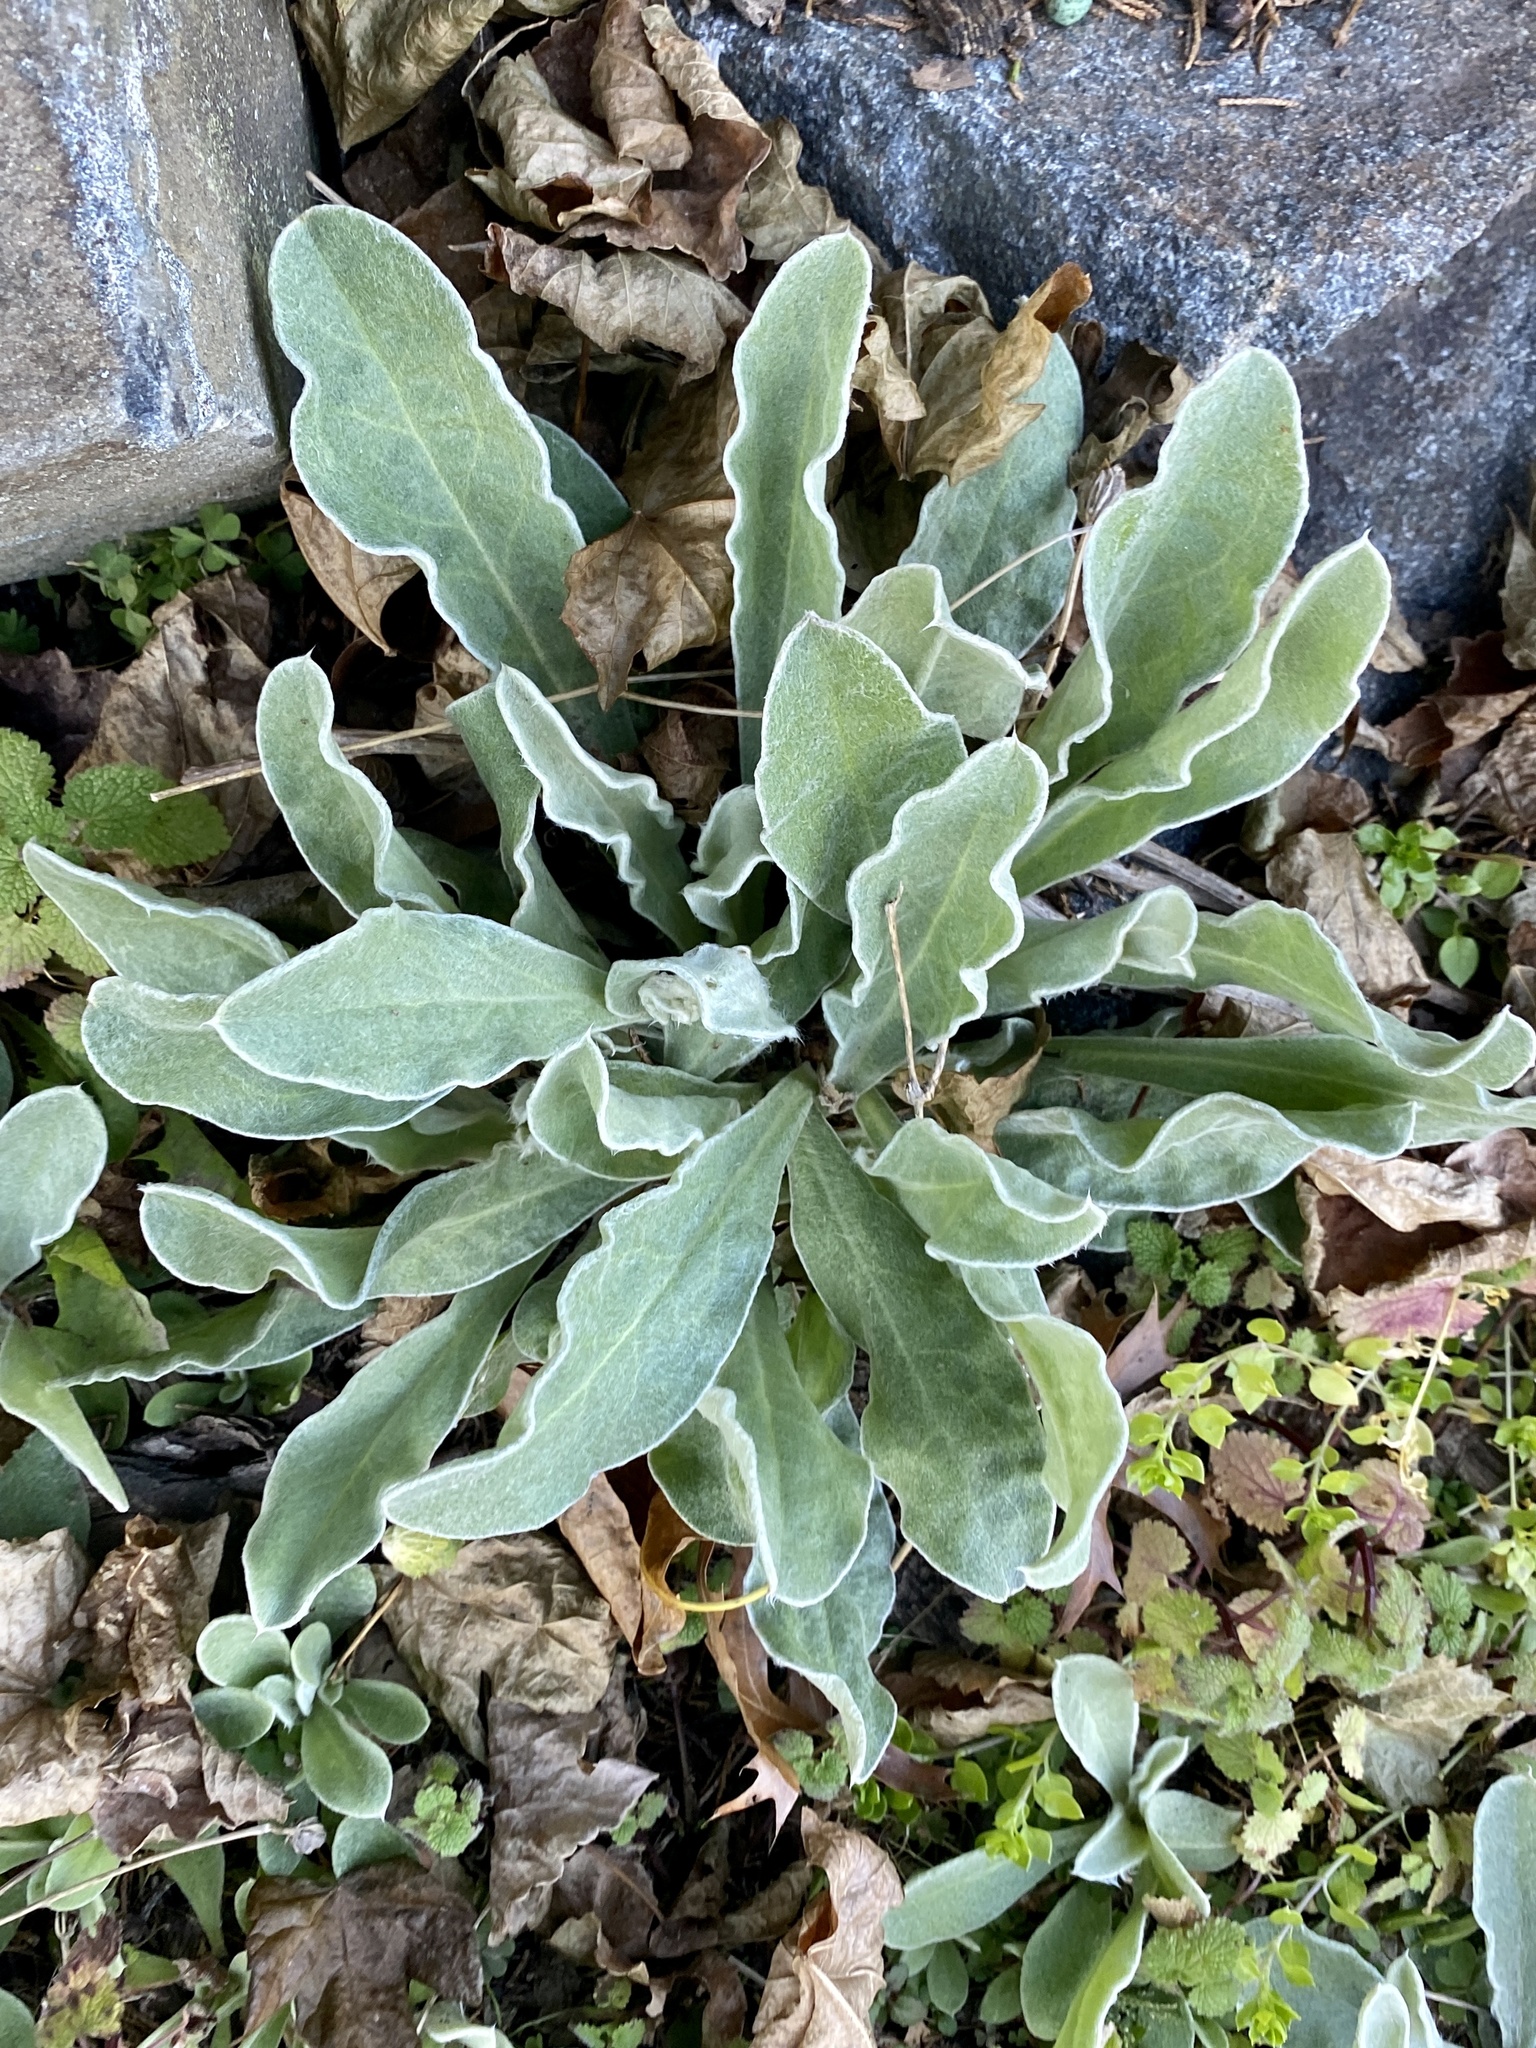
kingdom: Plantae
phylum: Tracheophyta
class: Magnoliopsida
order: Caryophyllales
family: Caryophyllaceae
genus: Silene
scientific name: Silene coronaria
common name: Rose campion
